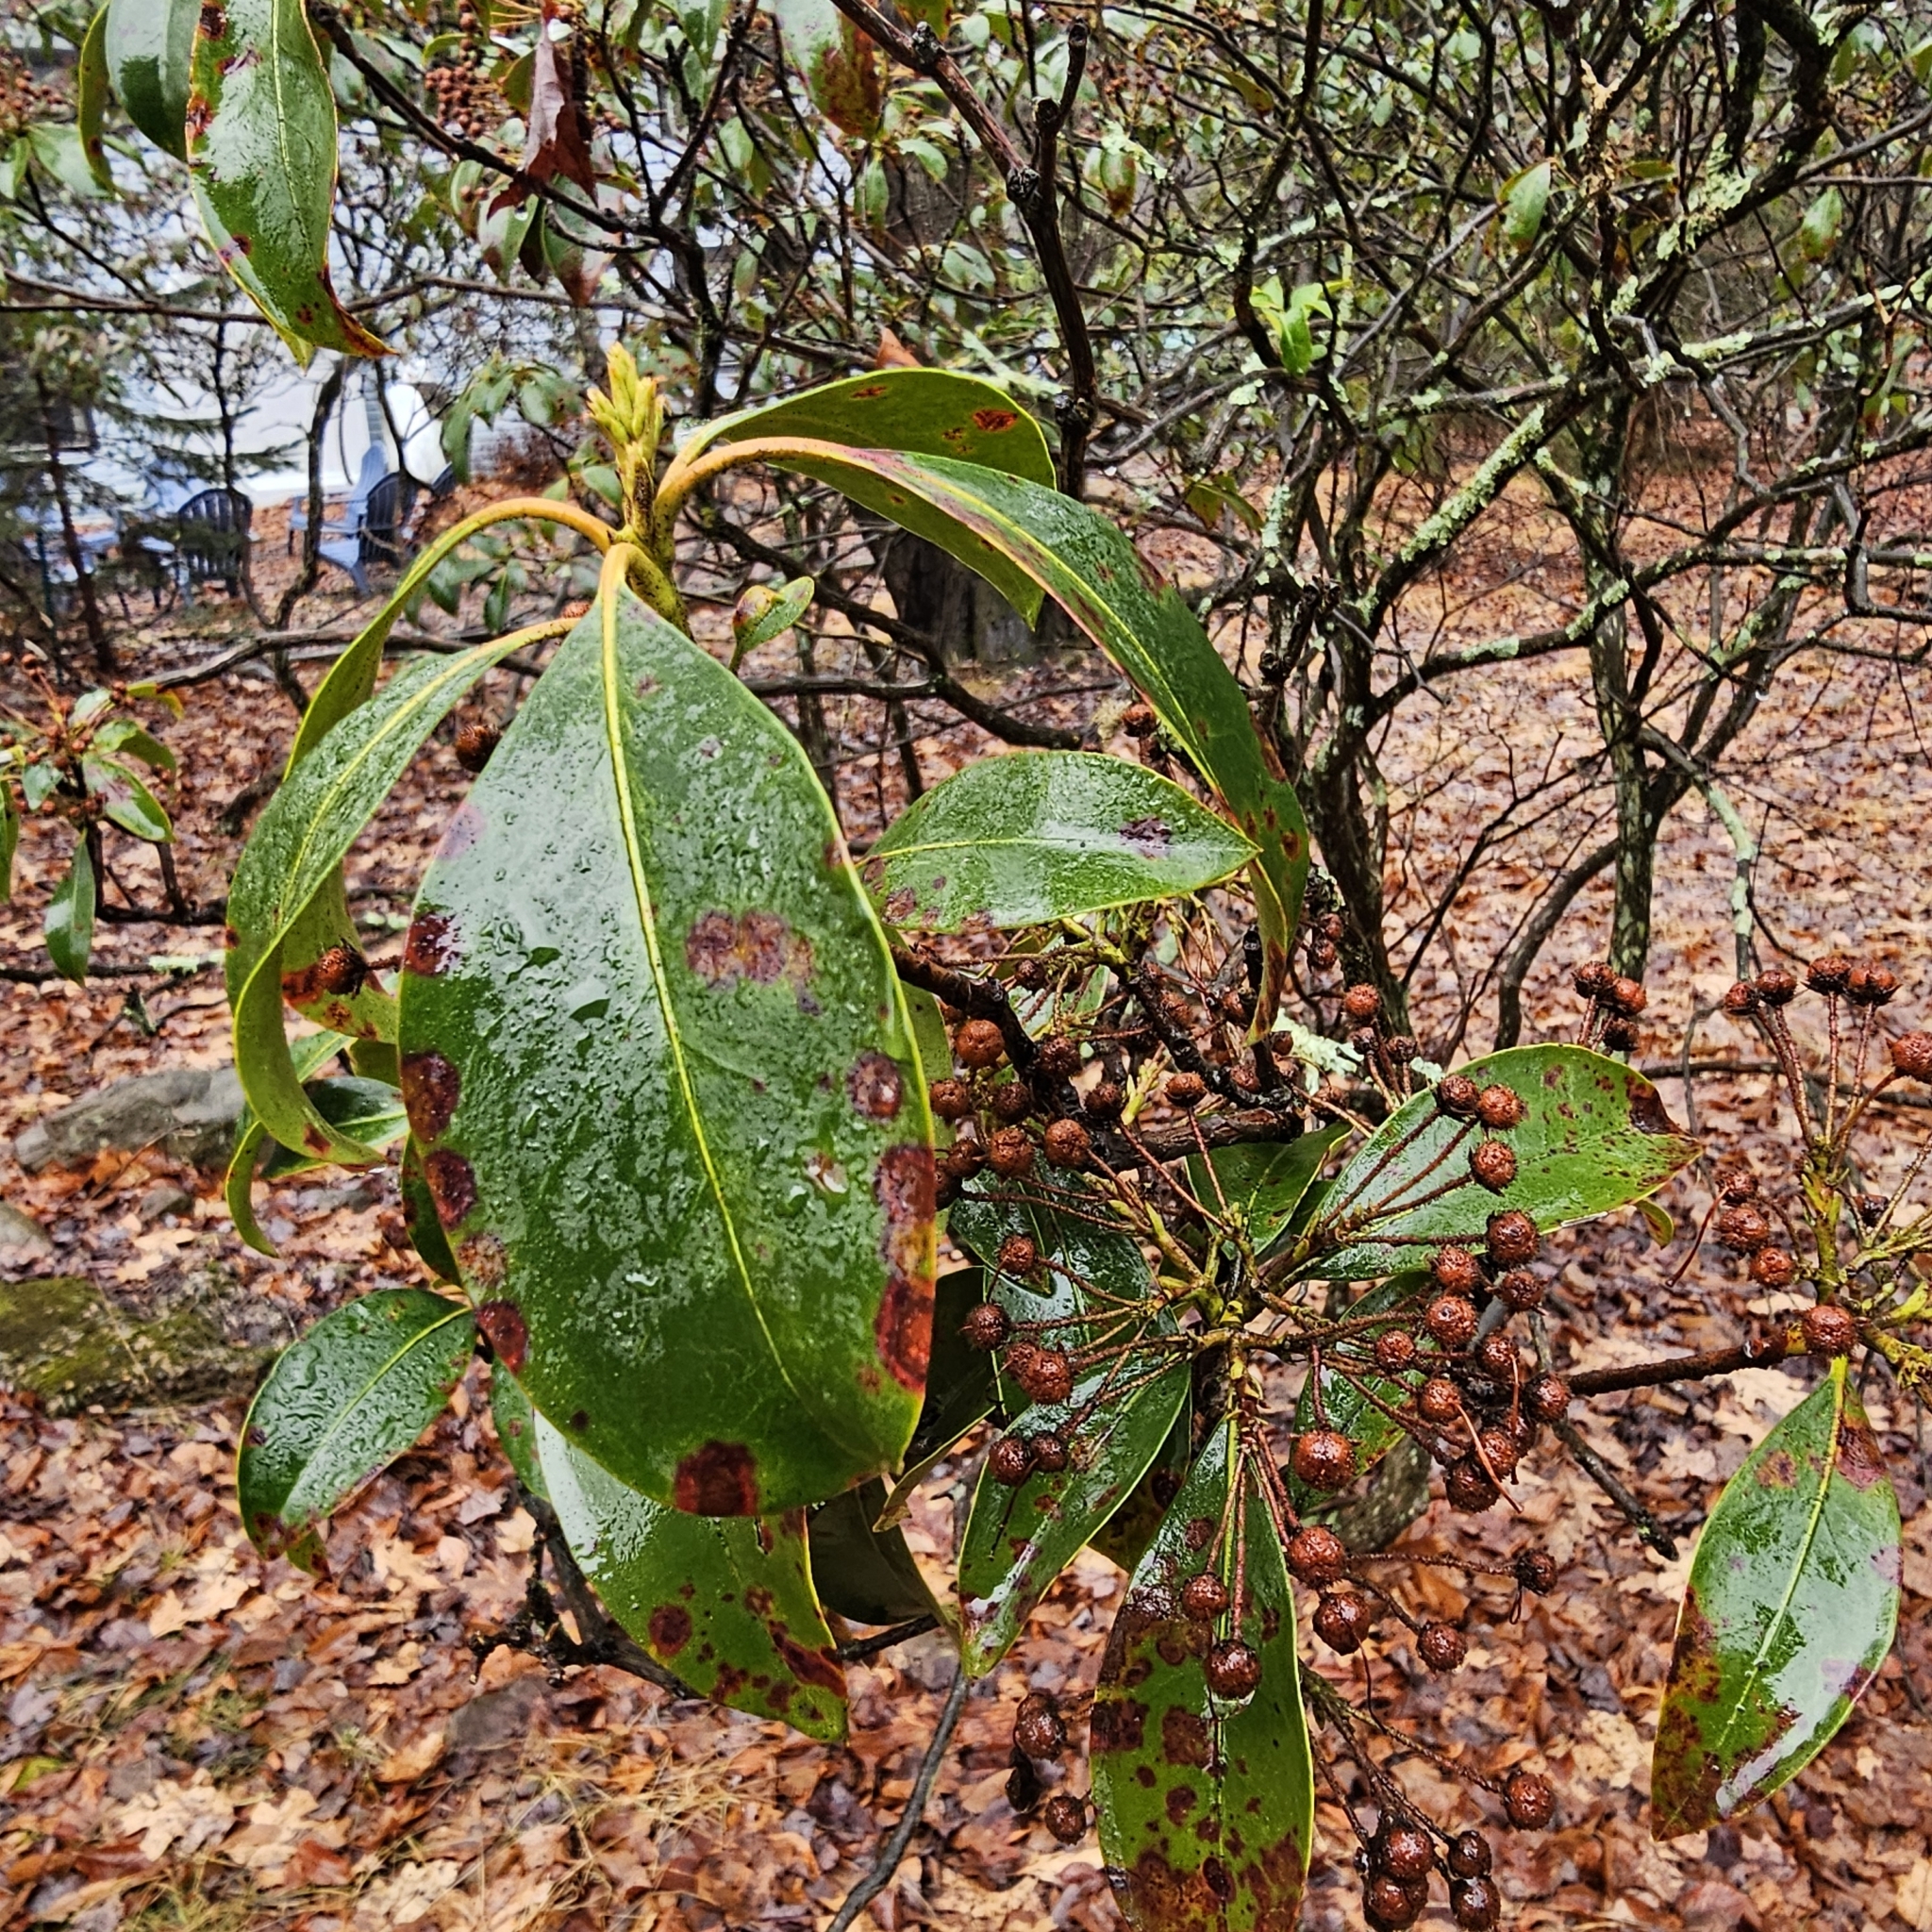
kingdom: Plantae
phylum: Tracheophyta
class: Magnoliopsida
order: Ericales
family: Ericaceae
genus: Kalmia
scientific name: Kalmia latifolia
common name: Mountain-laurel
